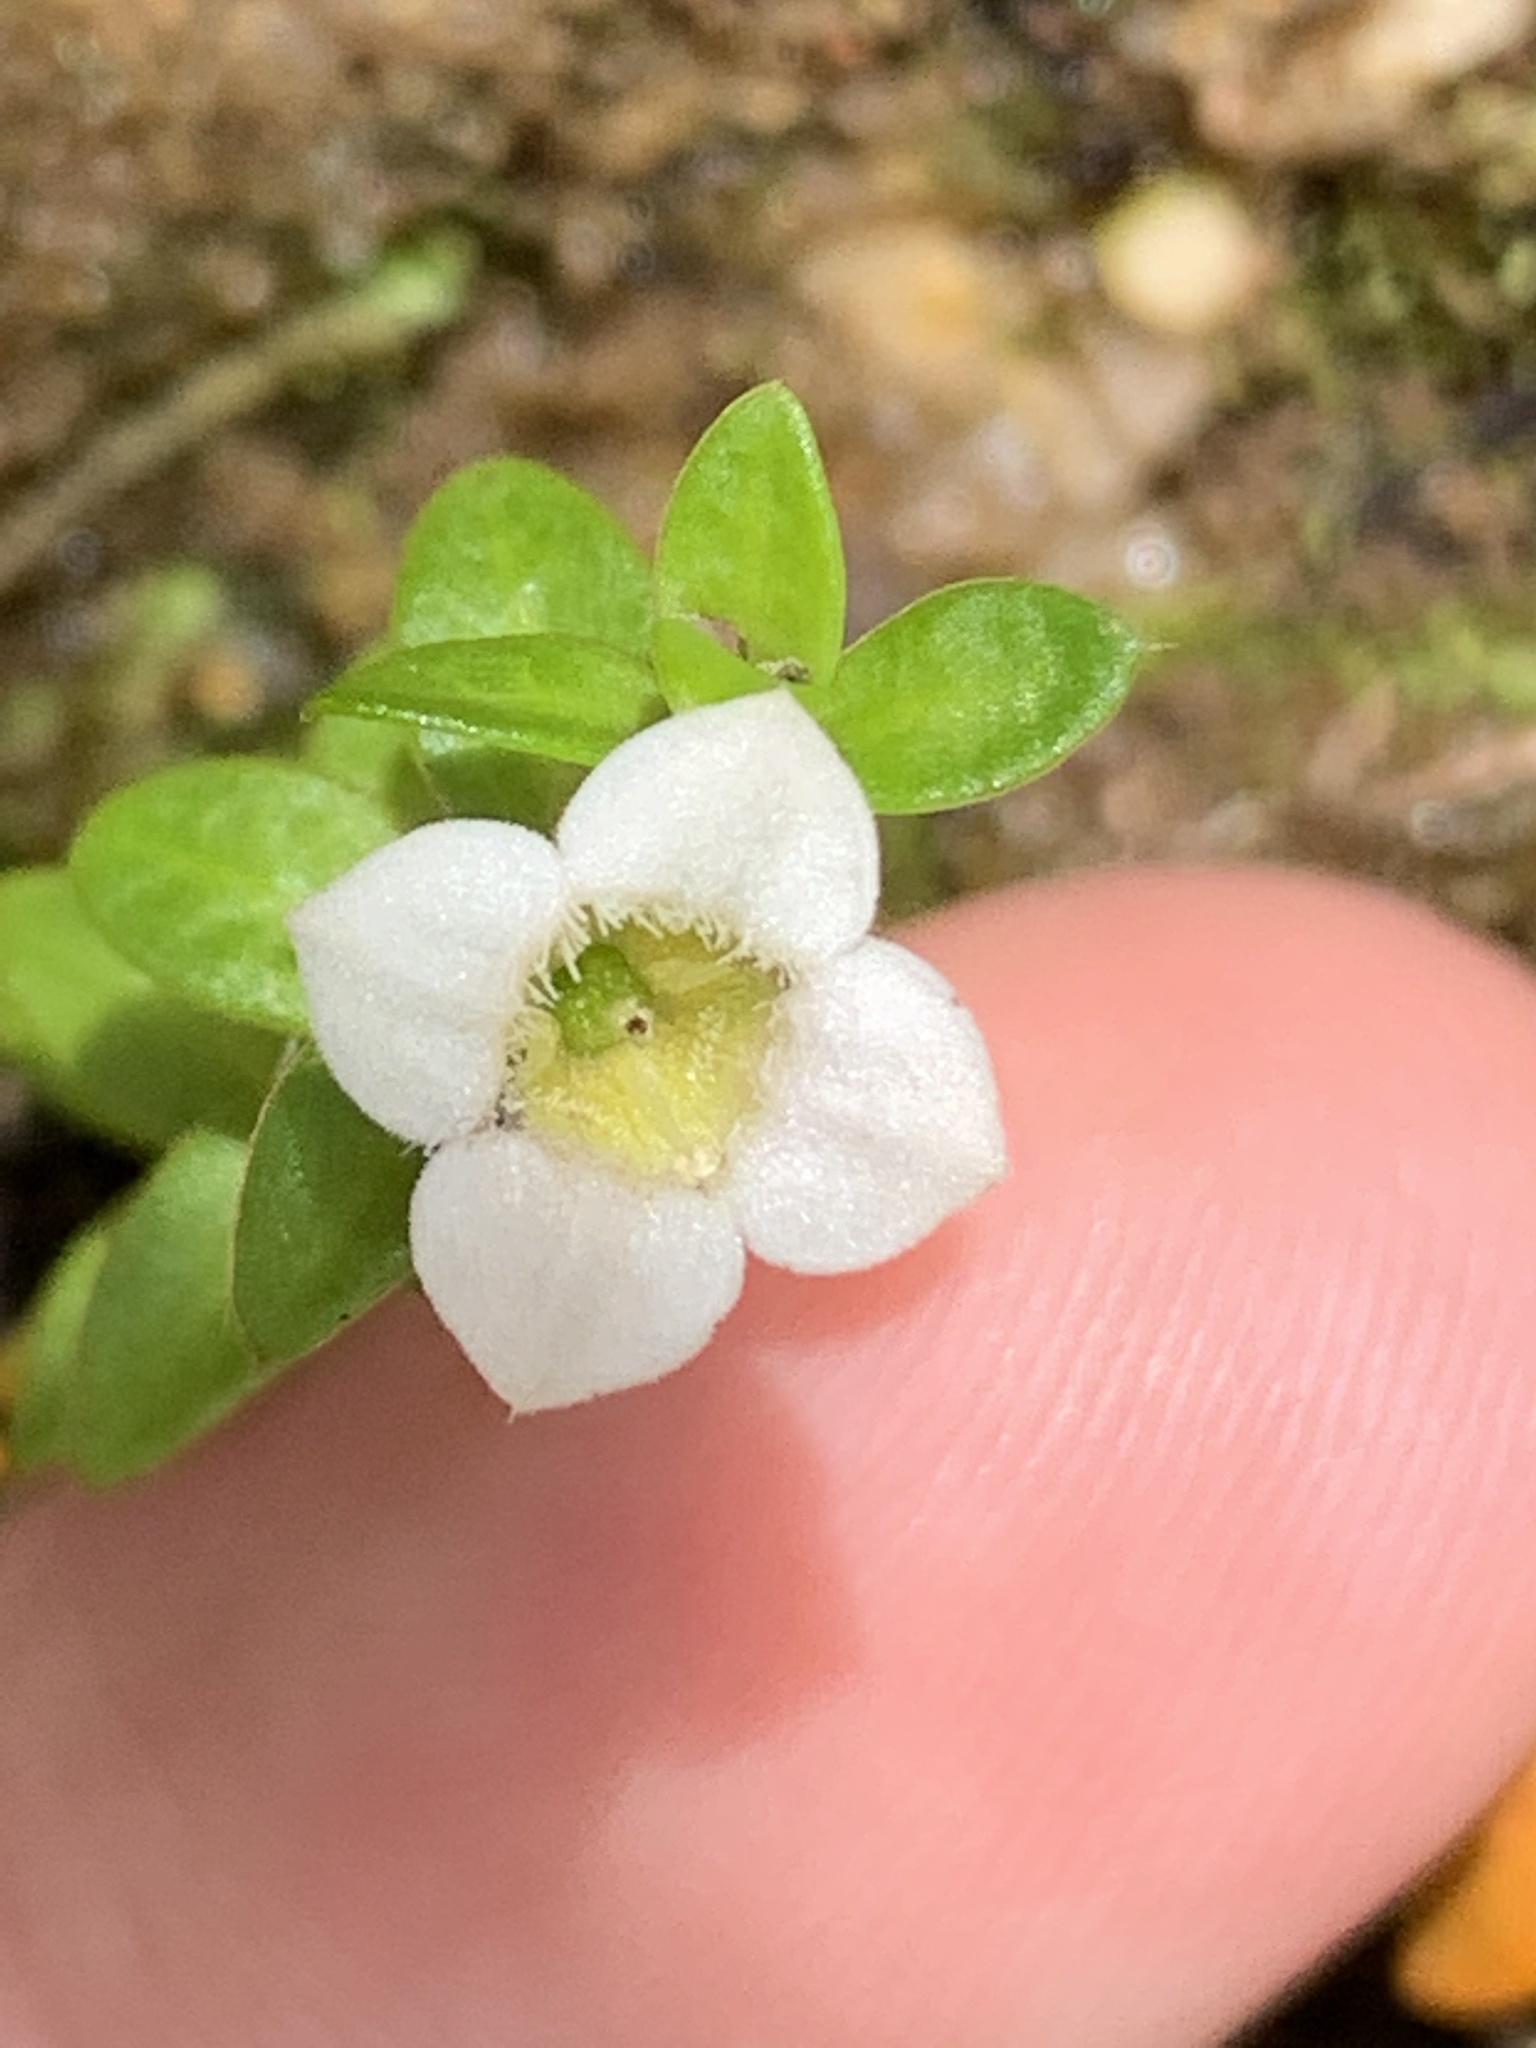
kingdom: Plantae
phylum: Tracheophyta
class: Magnoliopsida
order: Gentianales
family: Loganiaceae
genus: Mitrasacme
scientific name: Mitrasacme pilosa
